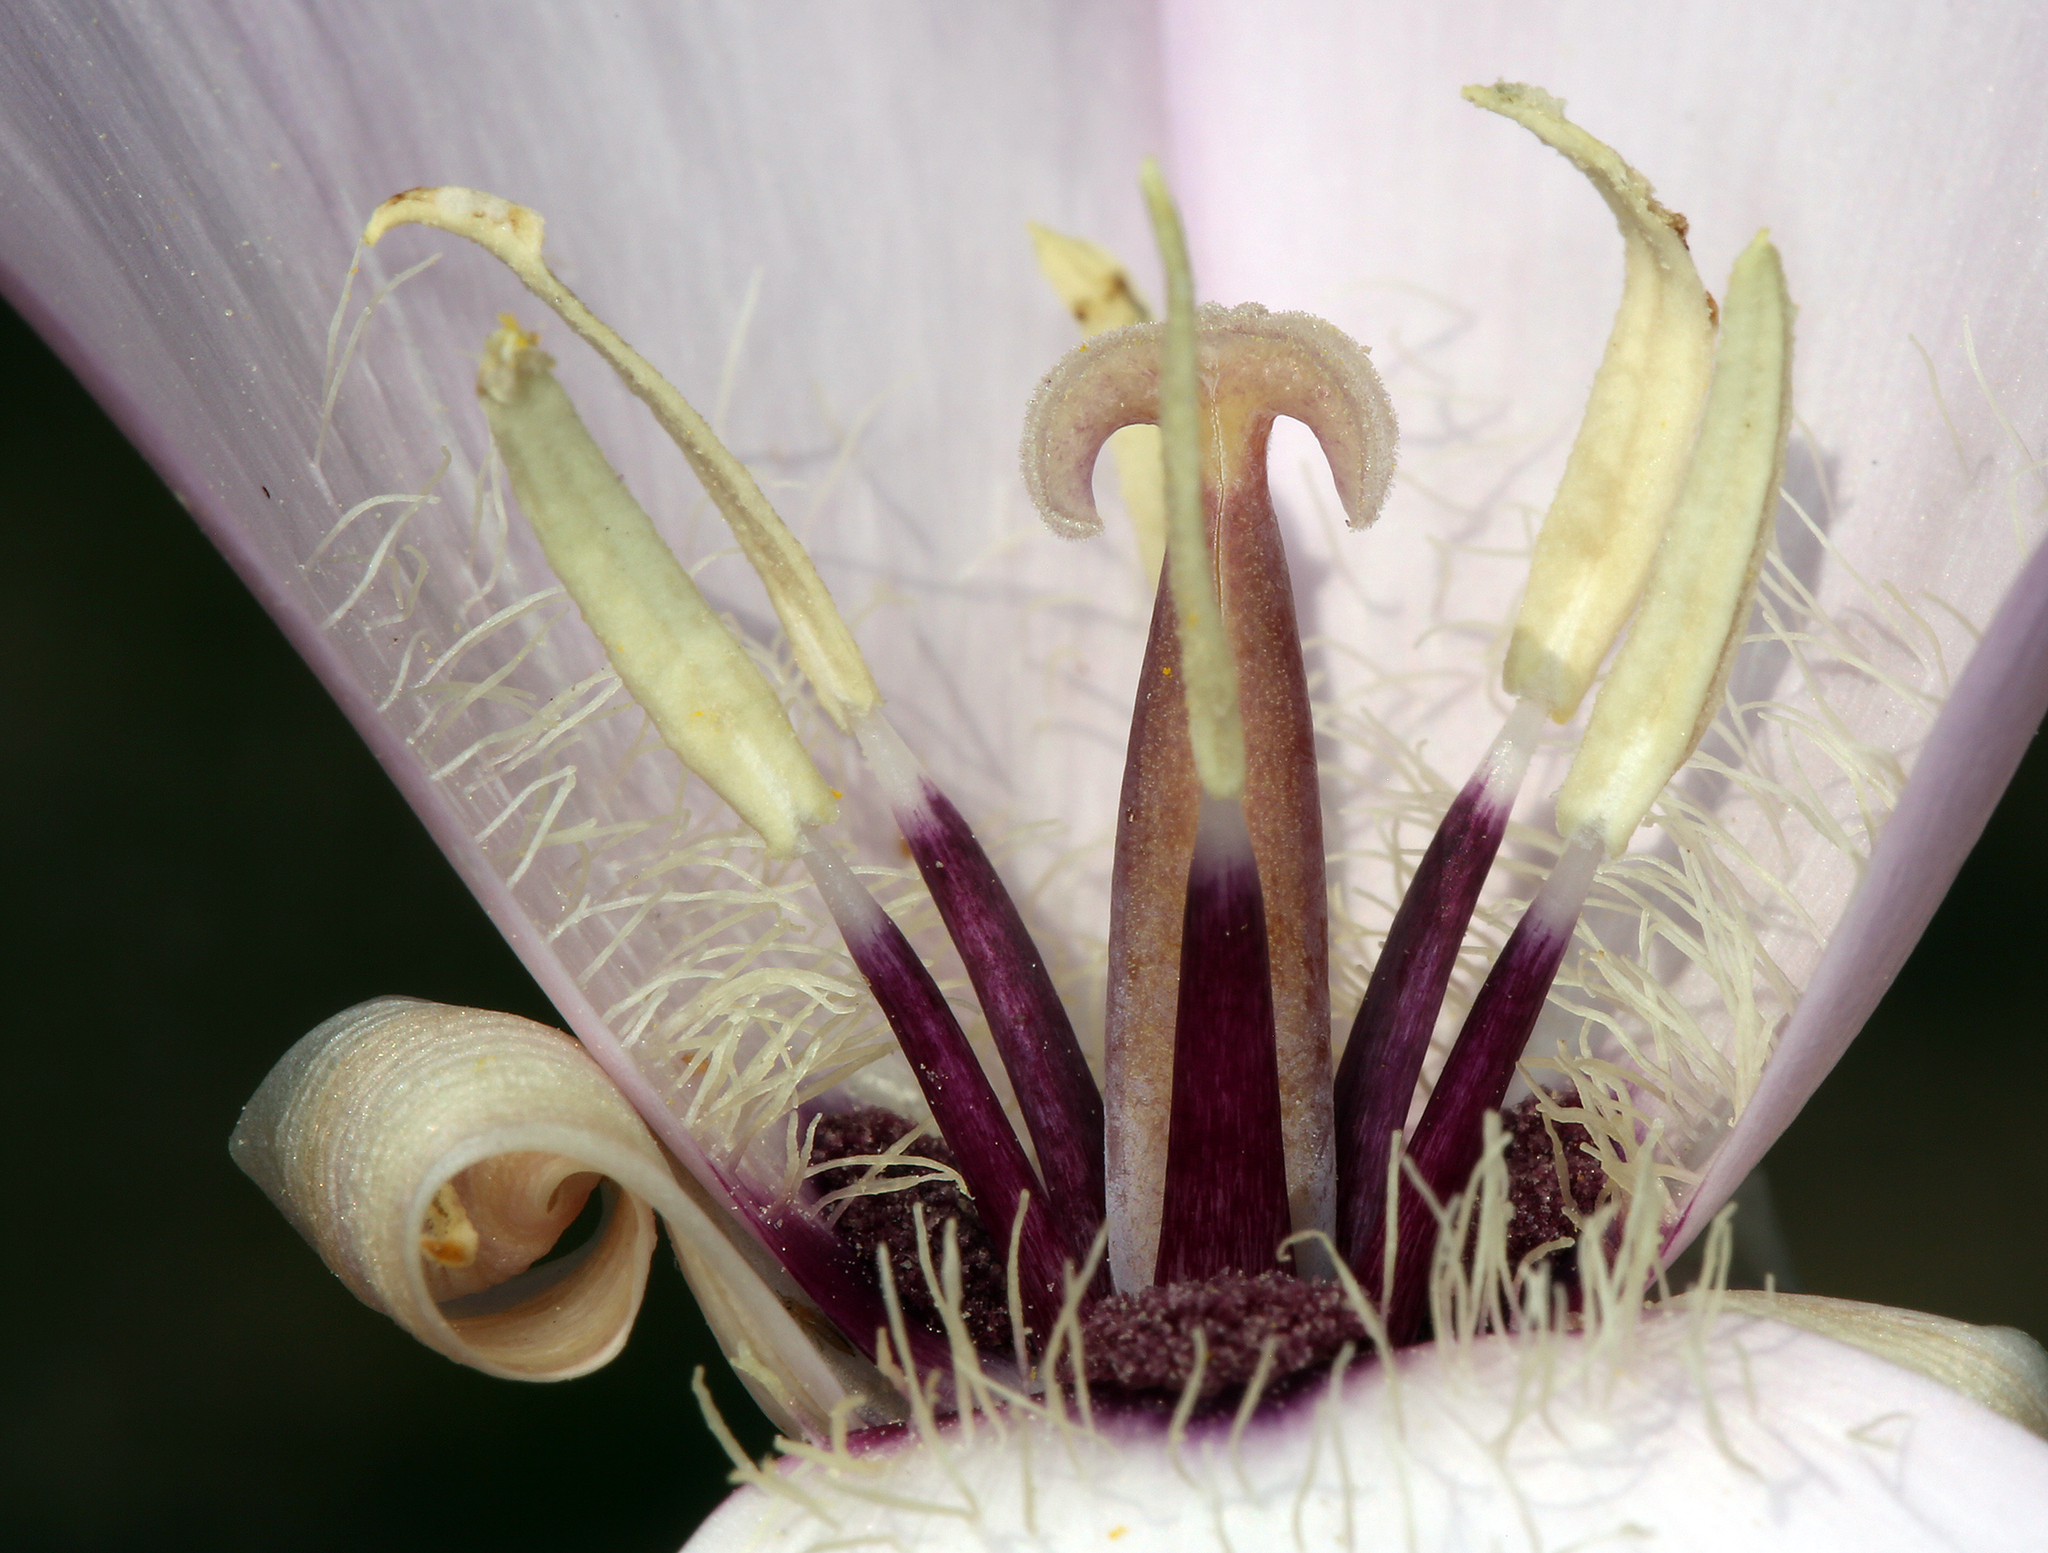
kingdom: Plantae
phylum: Tracheophyta
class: Liliopsida
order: Liliales
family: Liliaceae
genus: Calochortus
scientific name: Calochortus splendens
